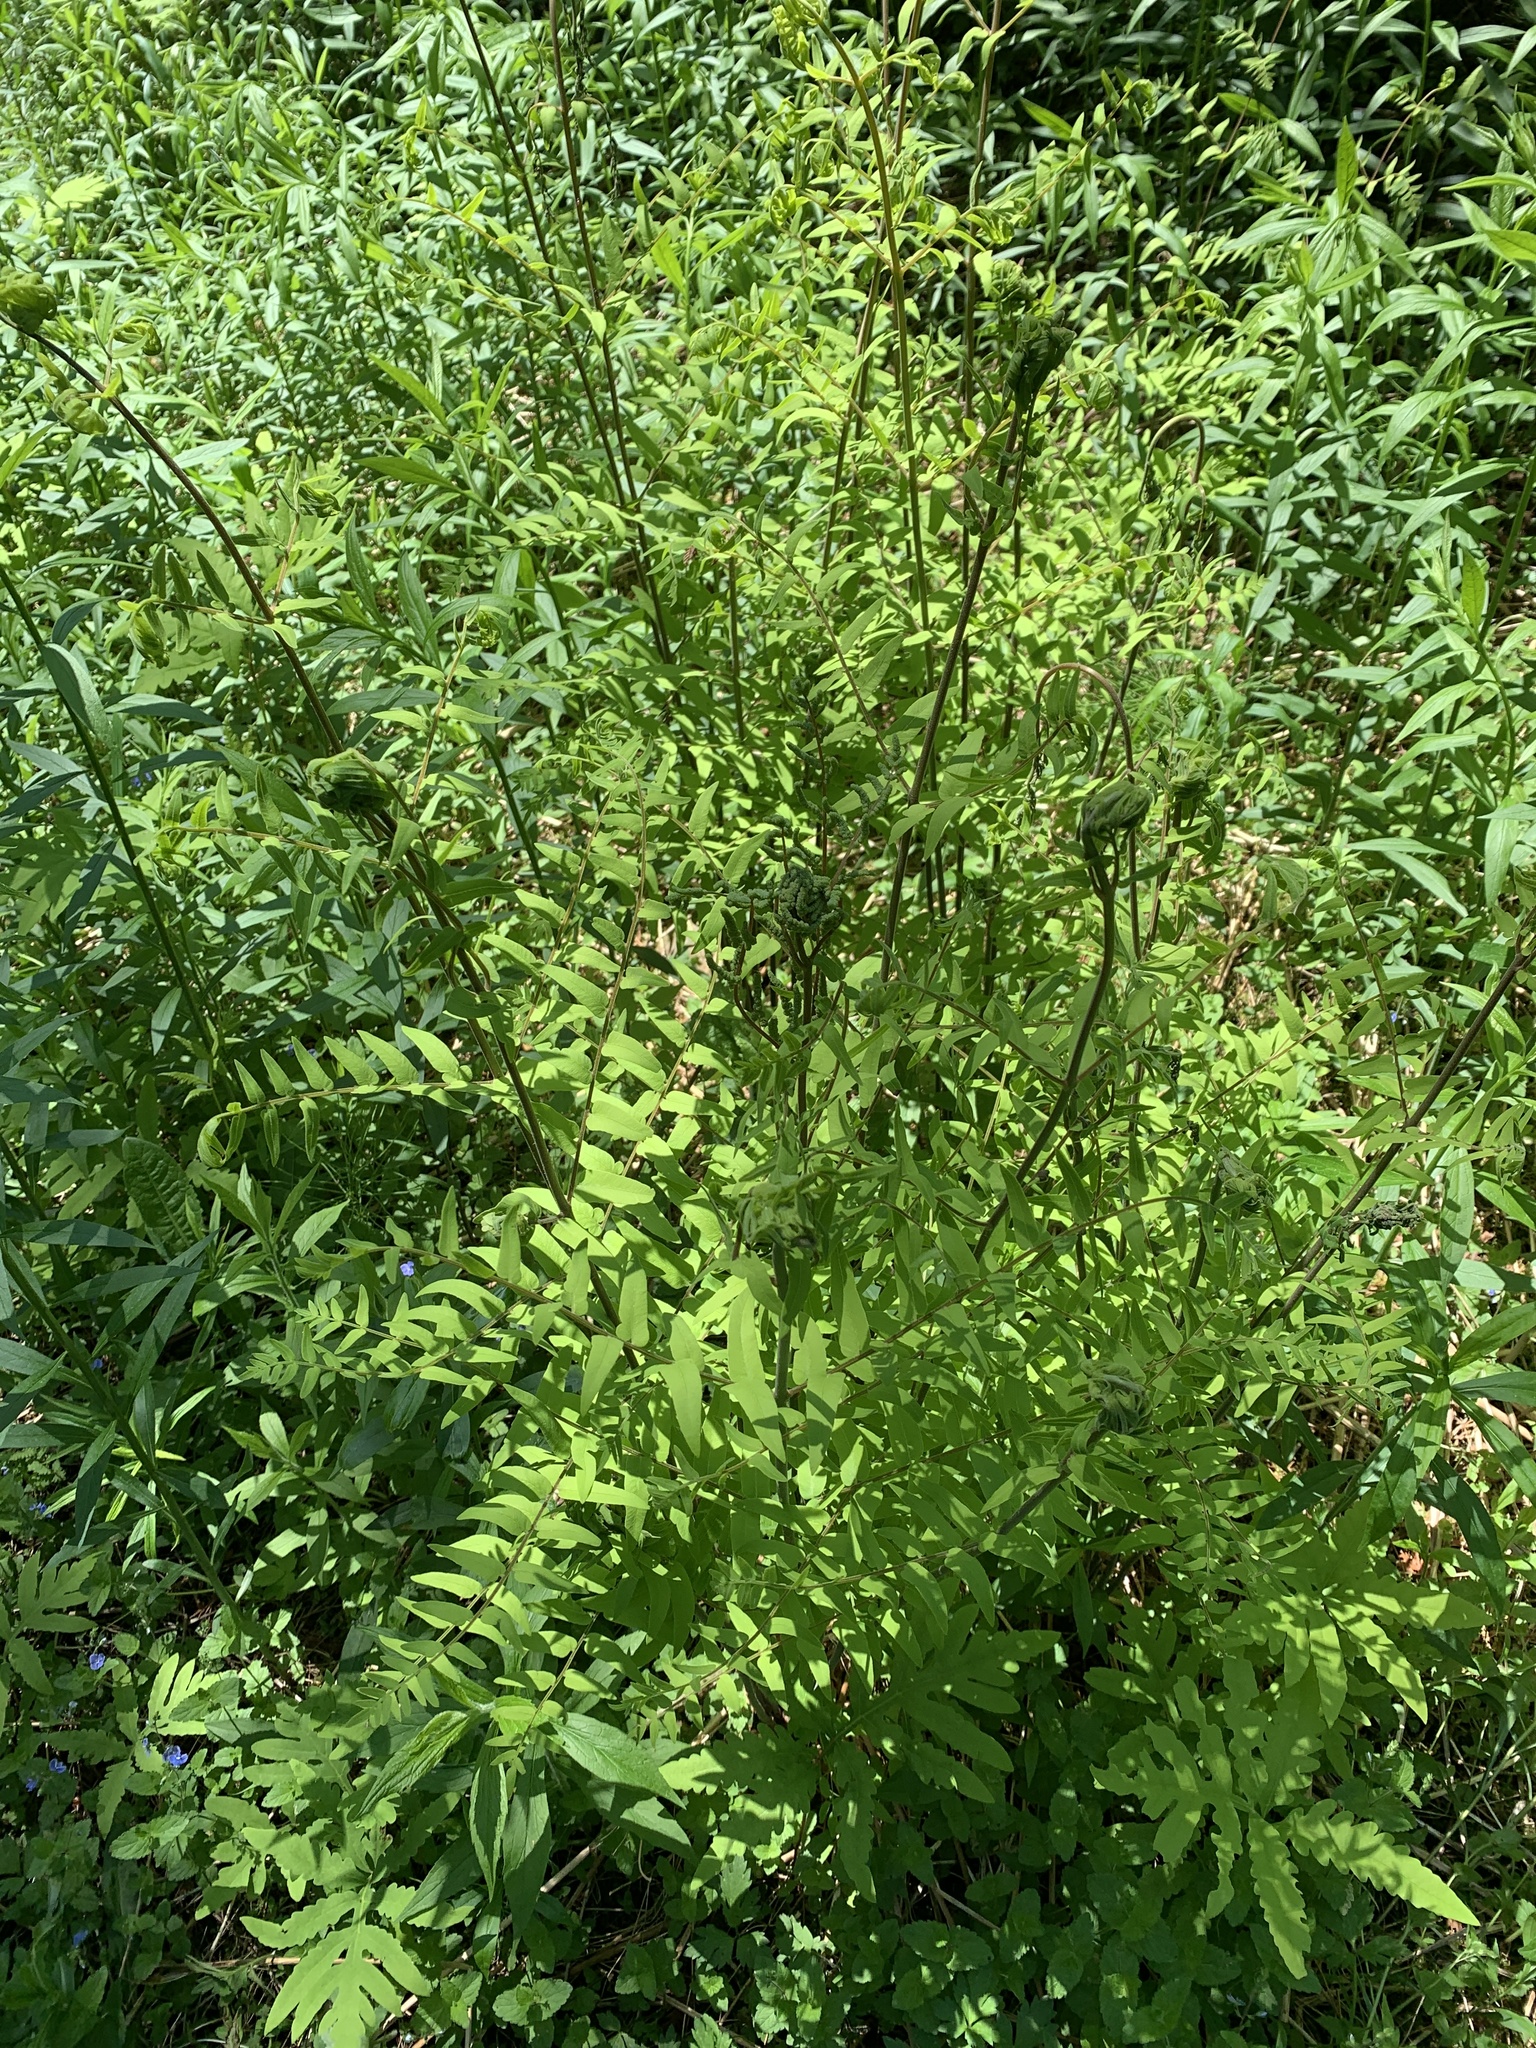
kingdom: Plantae
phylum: Tracheophyta
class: Polypodiopsida
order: Osmundales
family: Osmundaceae
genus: Osmunda
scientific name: Osmunda spectabilis
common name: American royal fern
